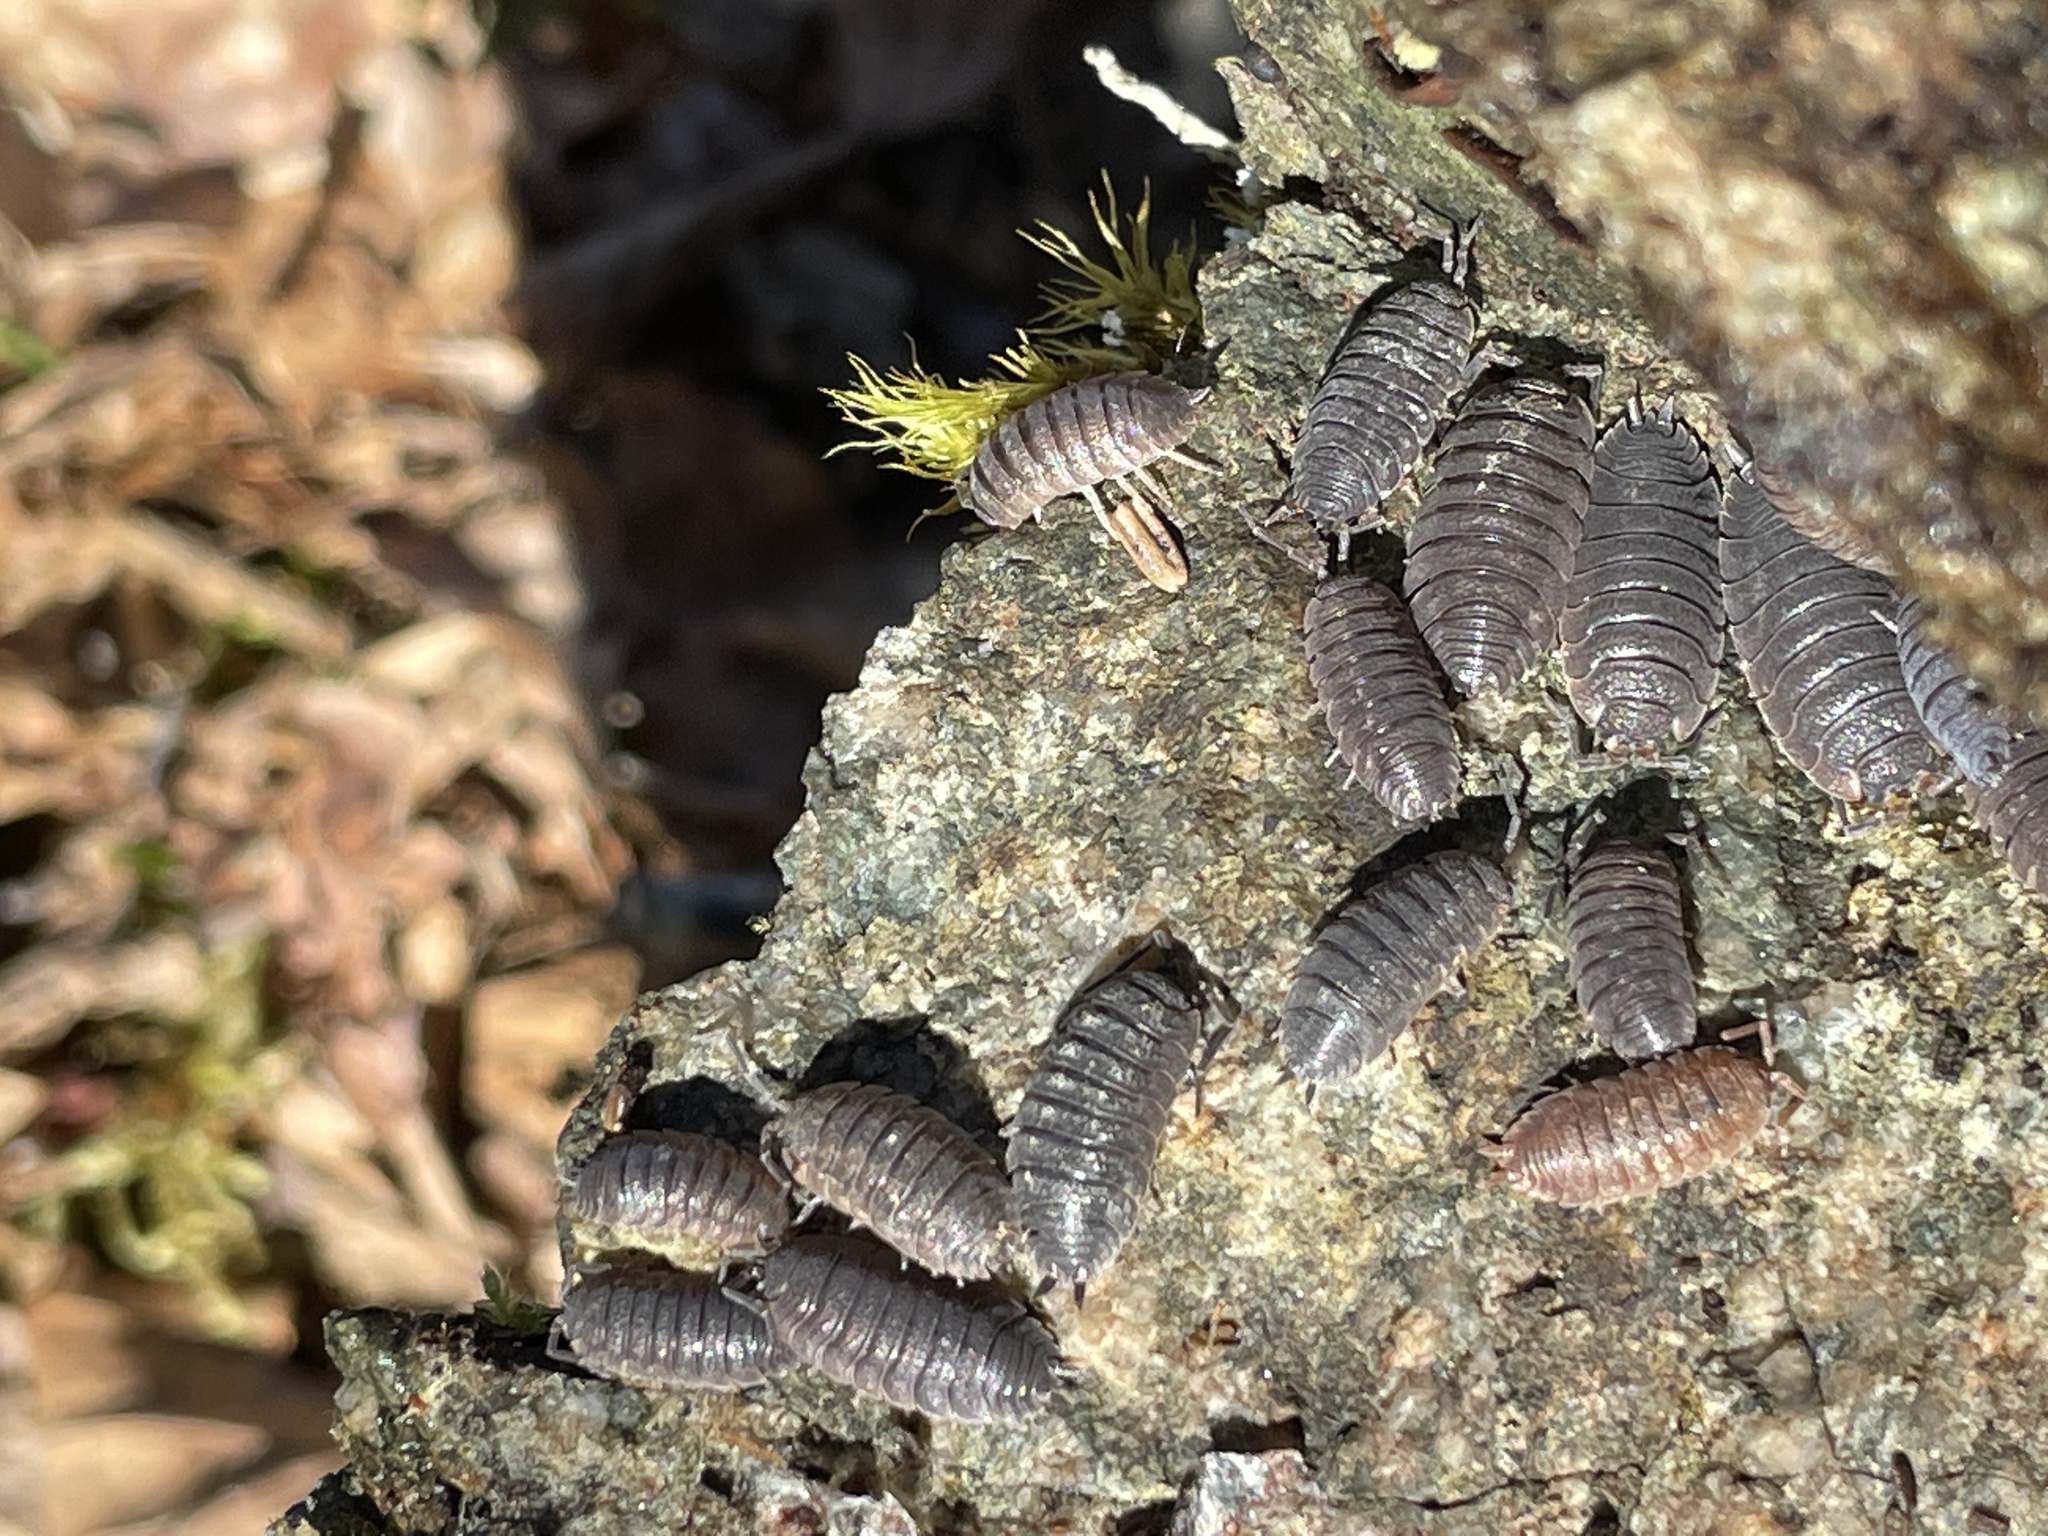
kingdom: Animalia
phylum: Arthropoda
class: Malacostraca
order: Isopoda
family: Porcellionidae
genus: Porcellio
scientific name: Porcellio scaber
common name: Common rough woodlouse
